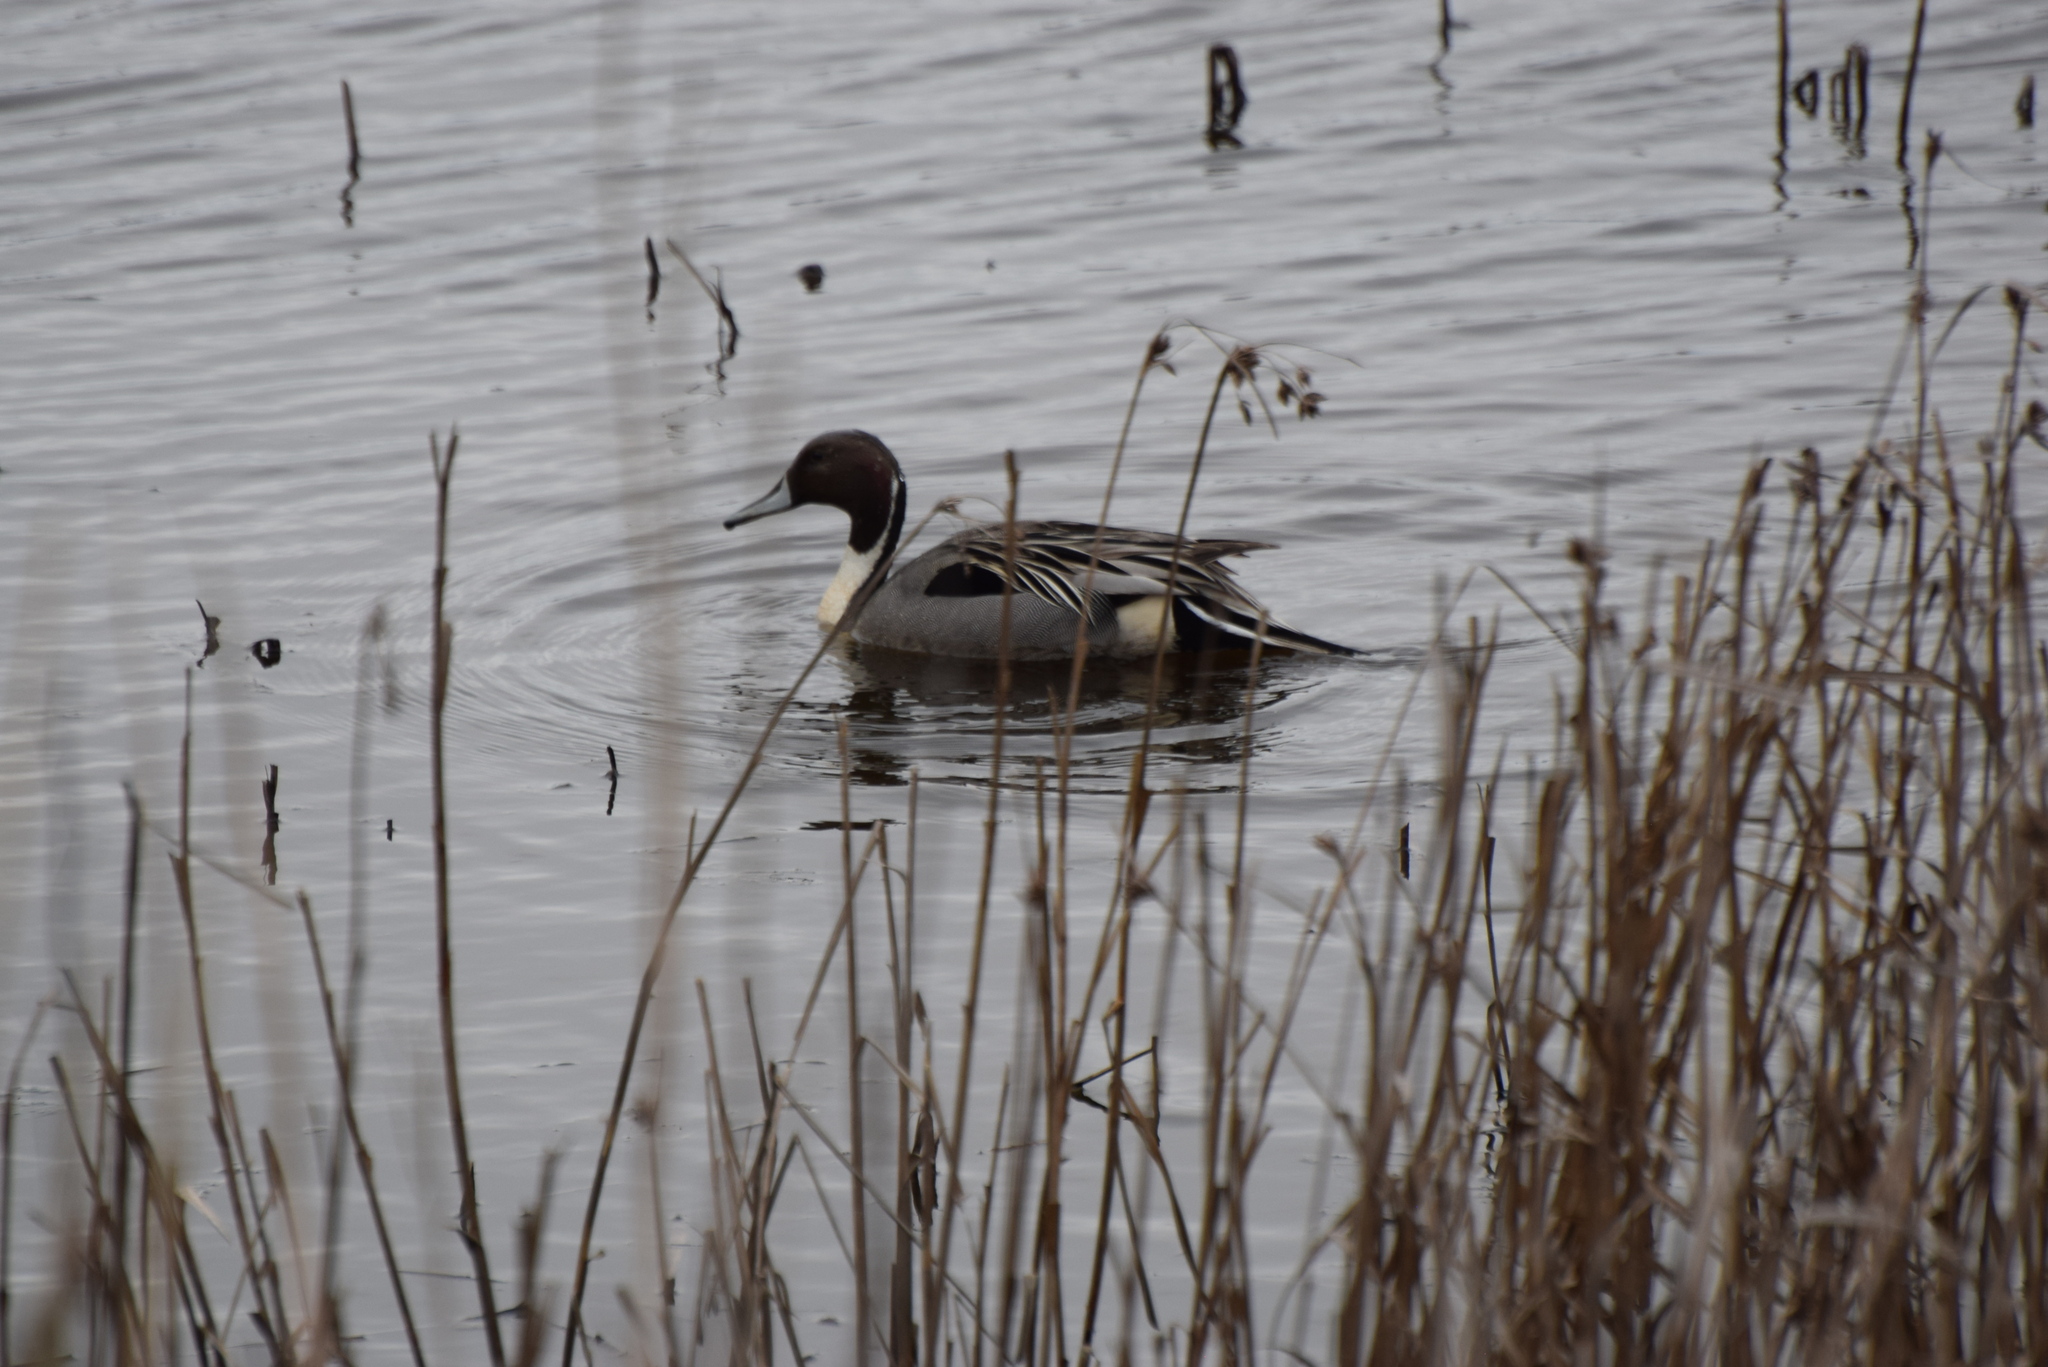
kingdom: Animalia
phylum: Chordata
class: Aves
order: Anseriformes
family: Anatidae
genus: Anas
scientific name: Anas acuta
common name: Northern pintail
